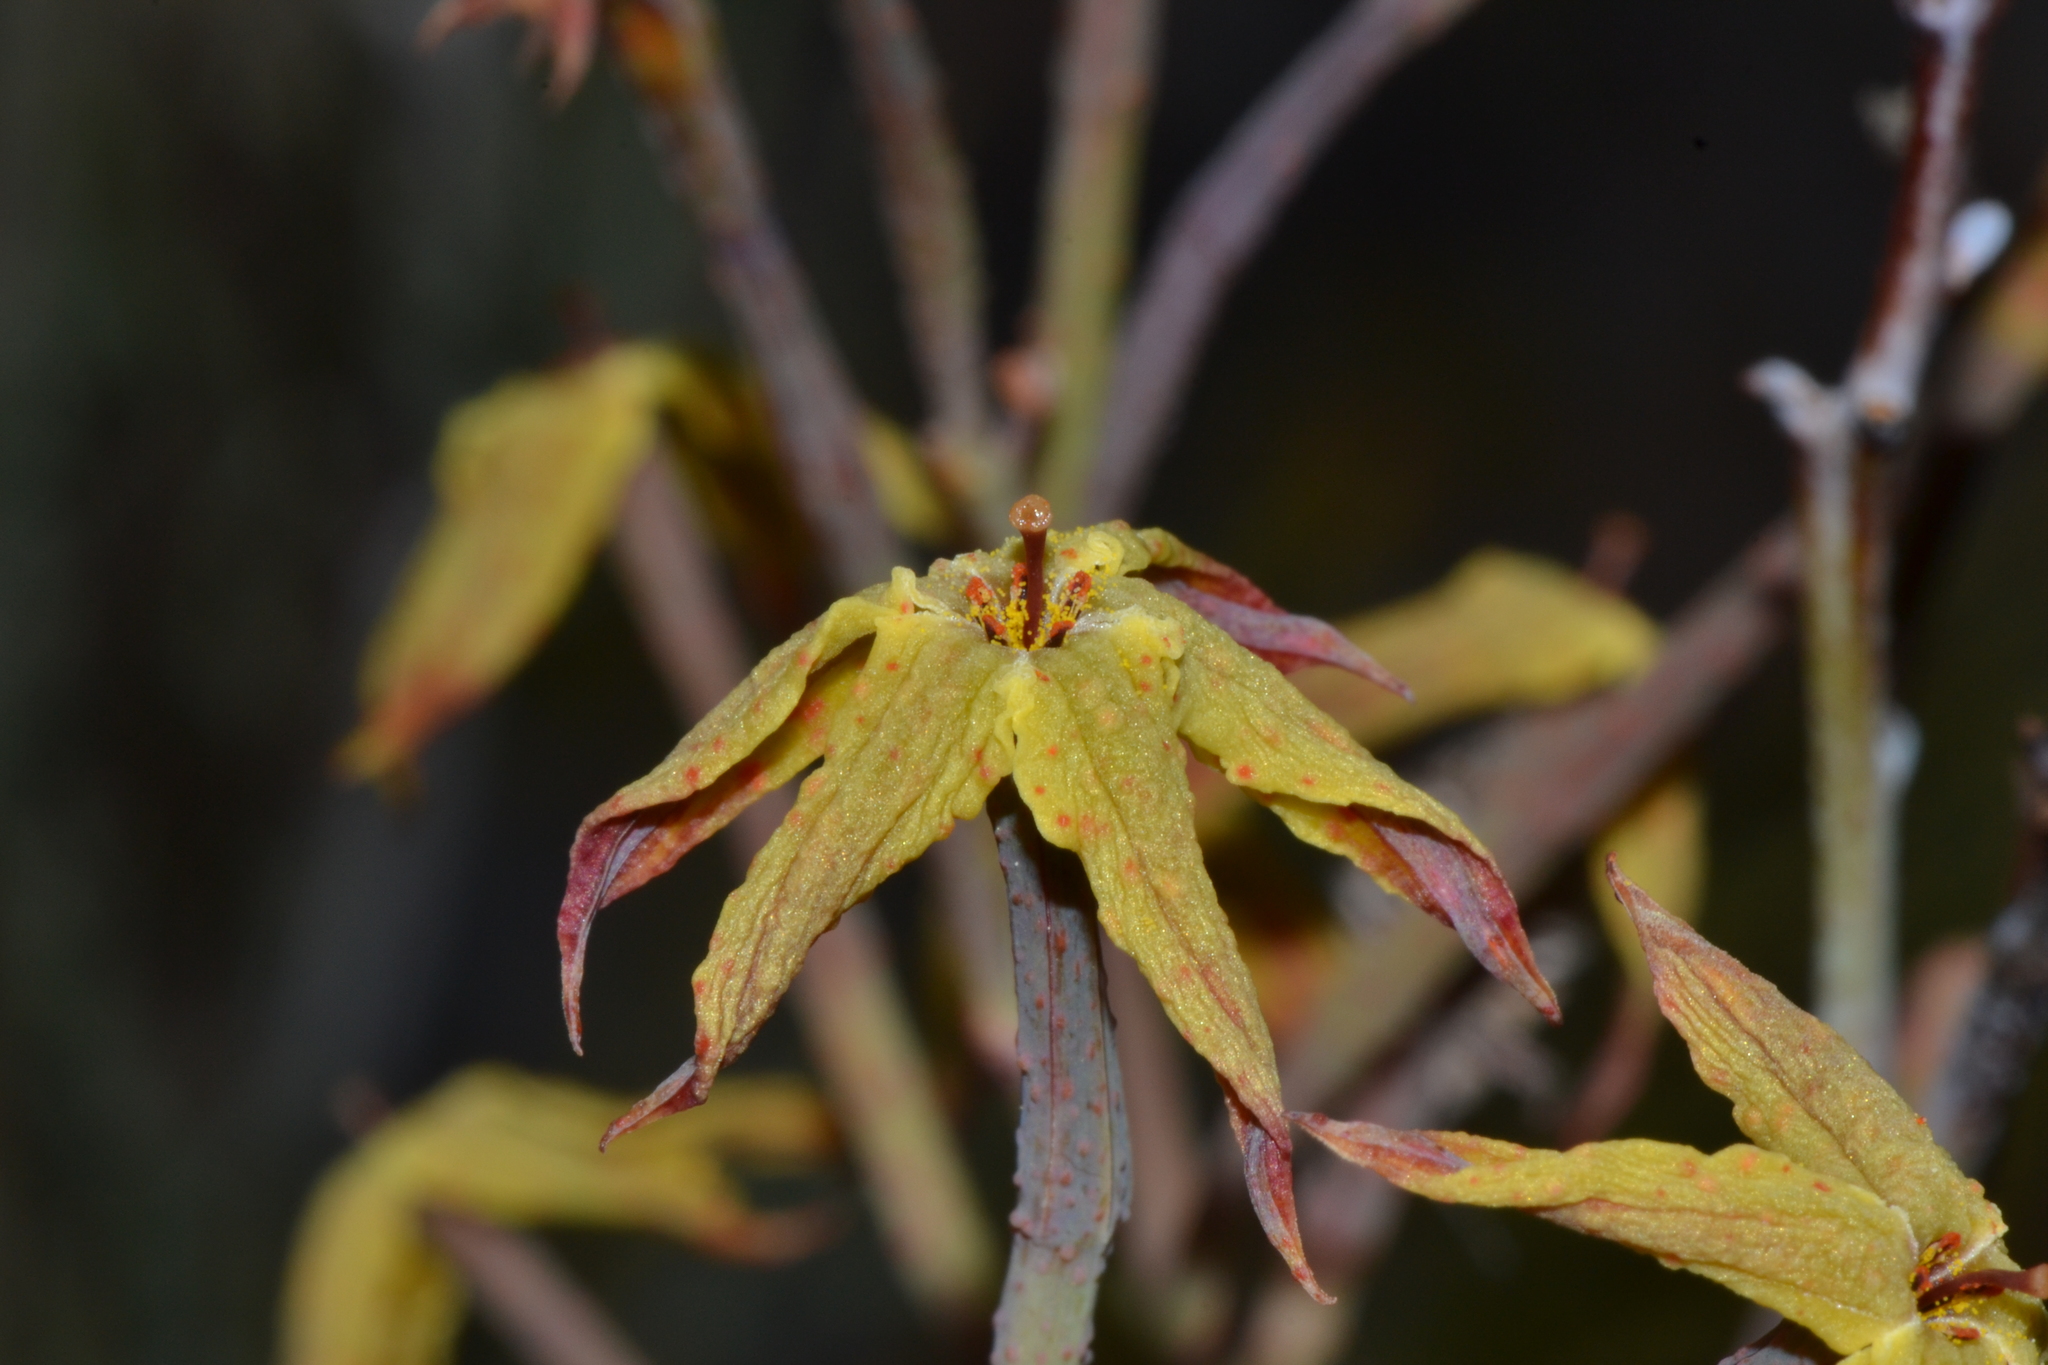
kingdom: Plantae
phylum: Tracheophyta
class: Magnoliopsida
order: Proteales
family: Proteaceae
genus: Franklandia
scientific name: Franklandia fucifolia
